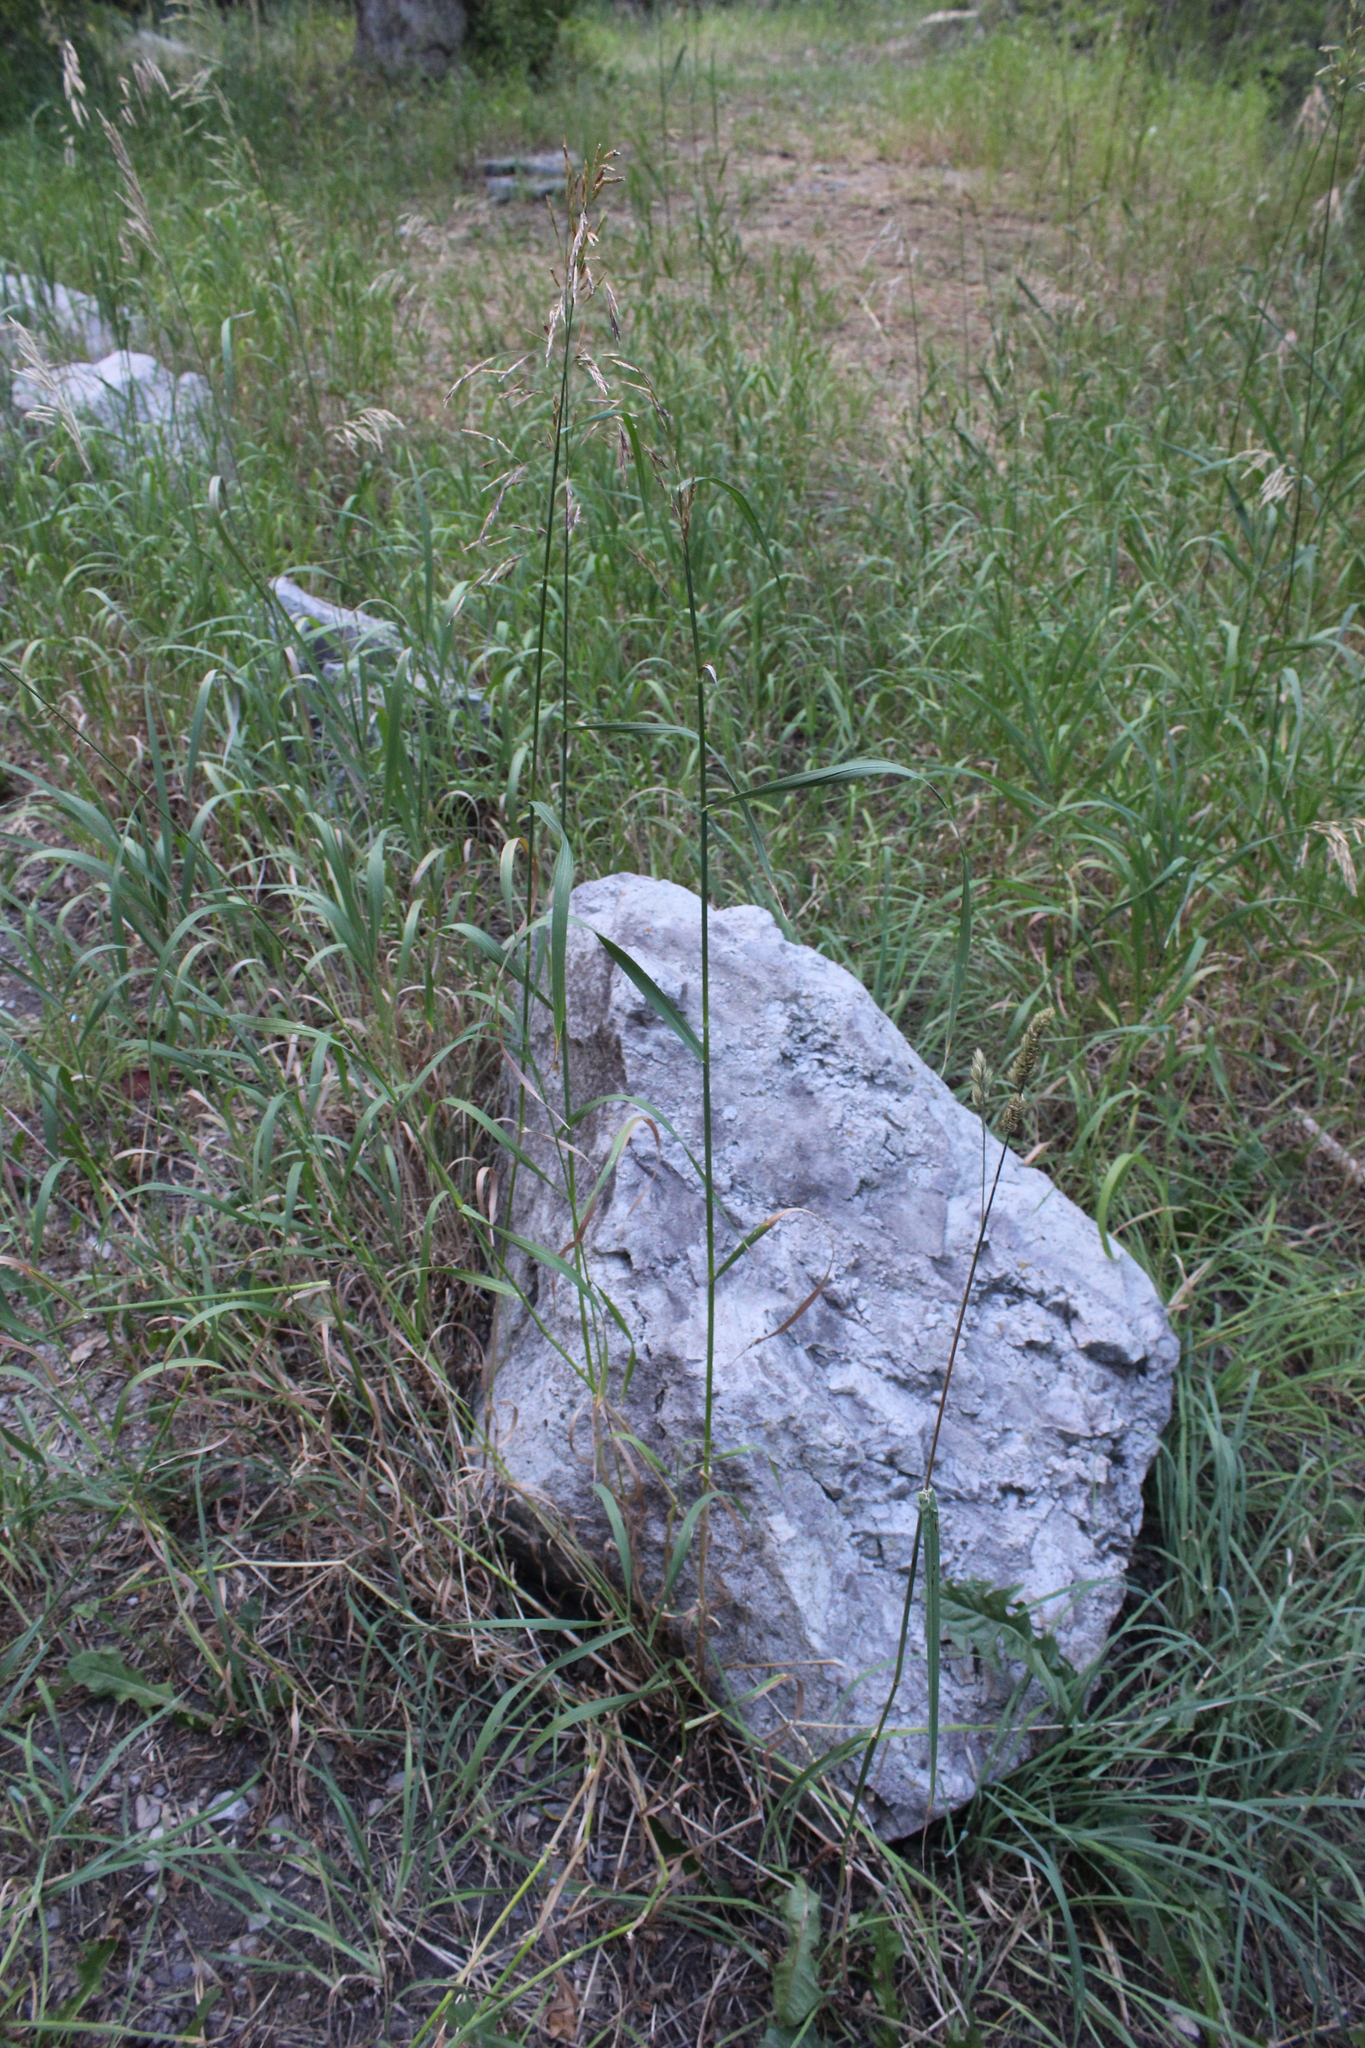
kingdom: Plantae
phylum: Tracheophyta
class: Liliopsida
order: Poales
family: Poaceae
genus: Bromus
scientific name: Bromus inermis
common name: Smooth brome
